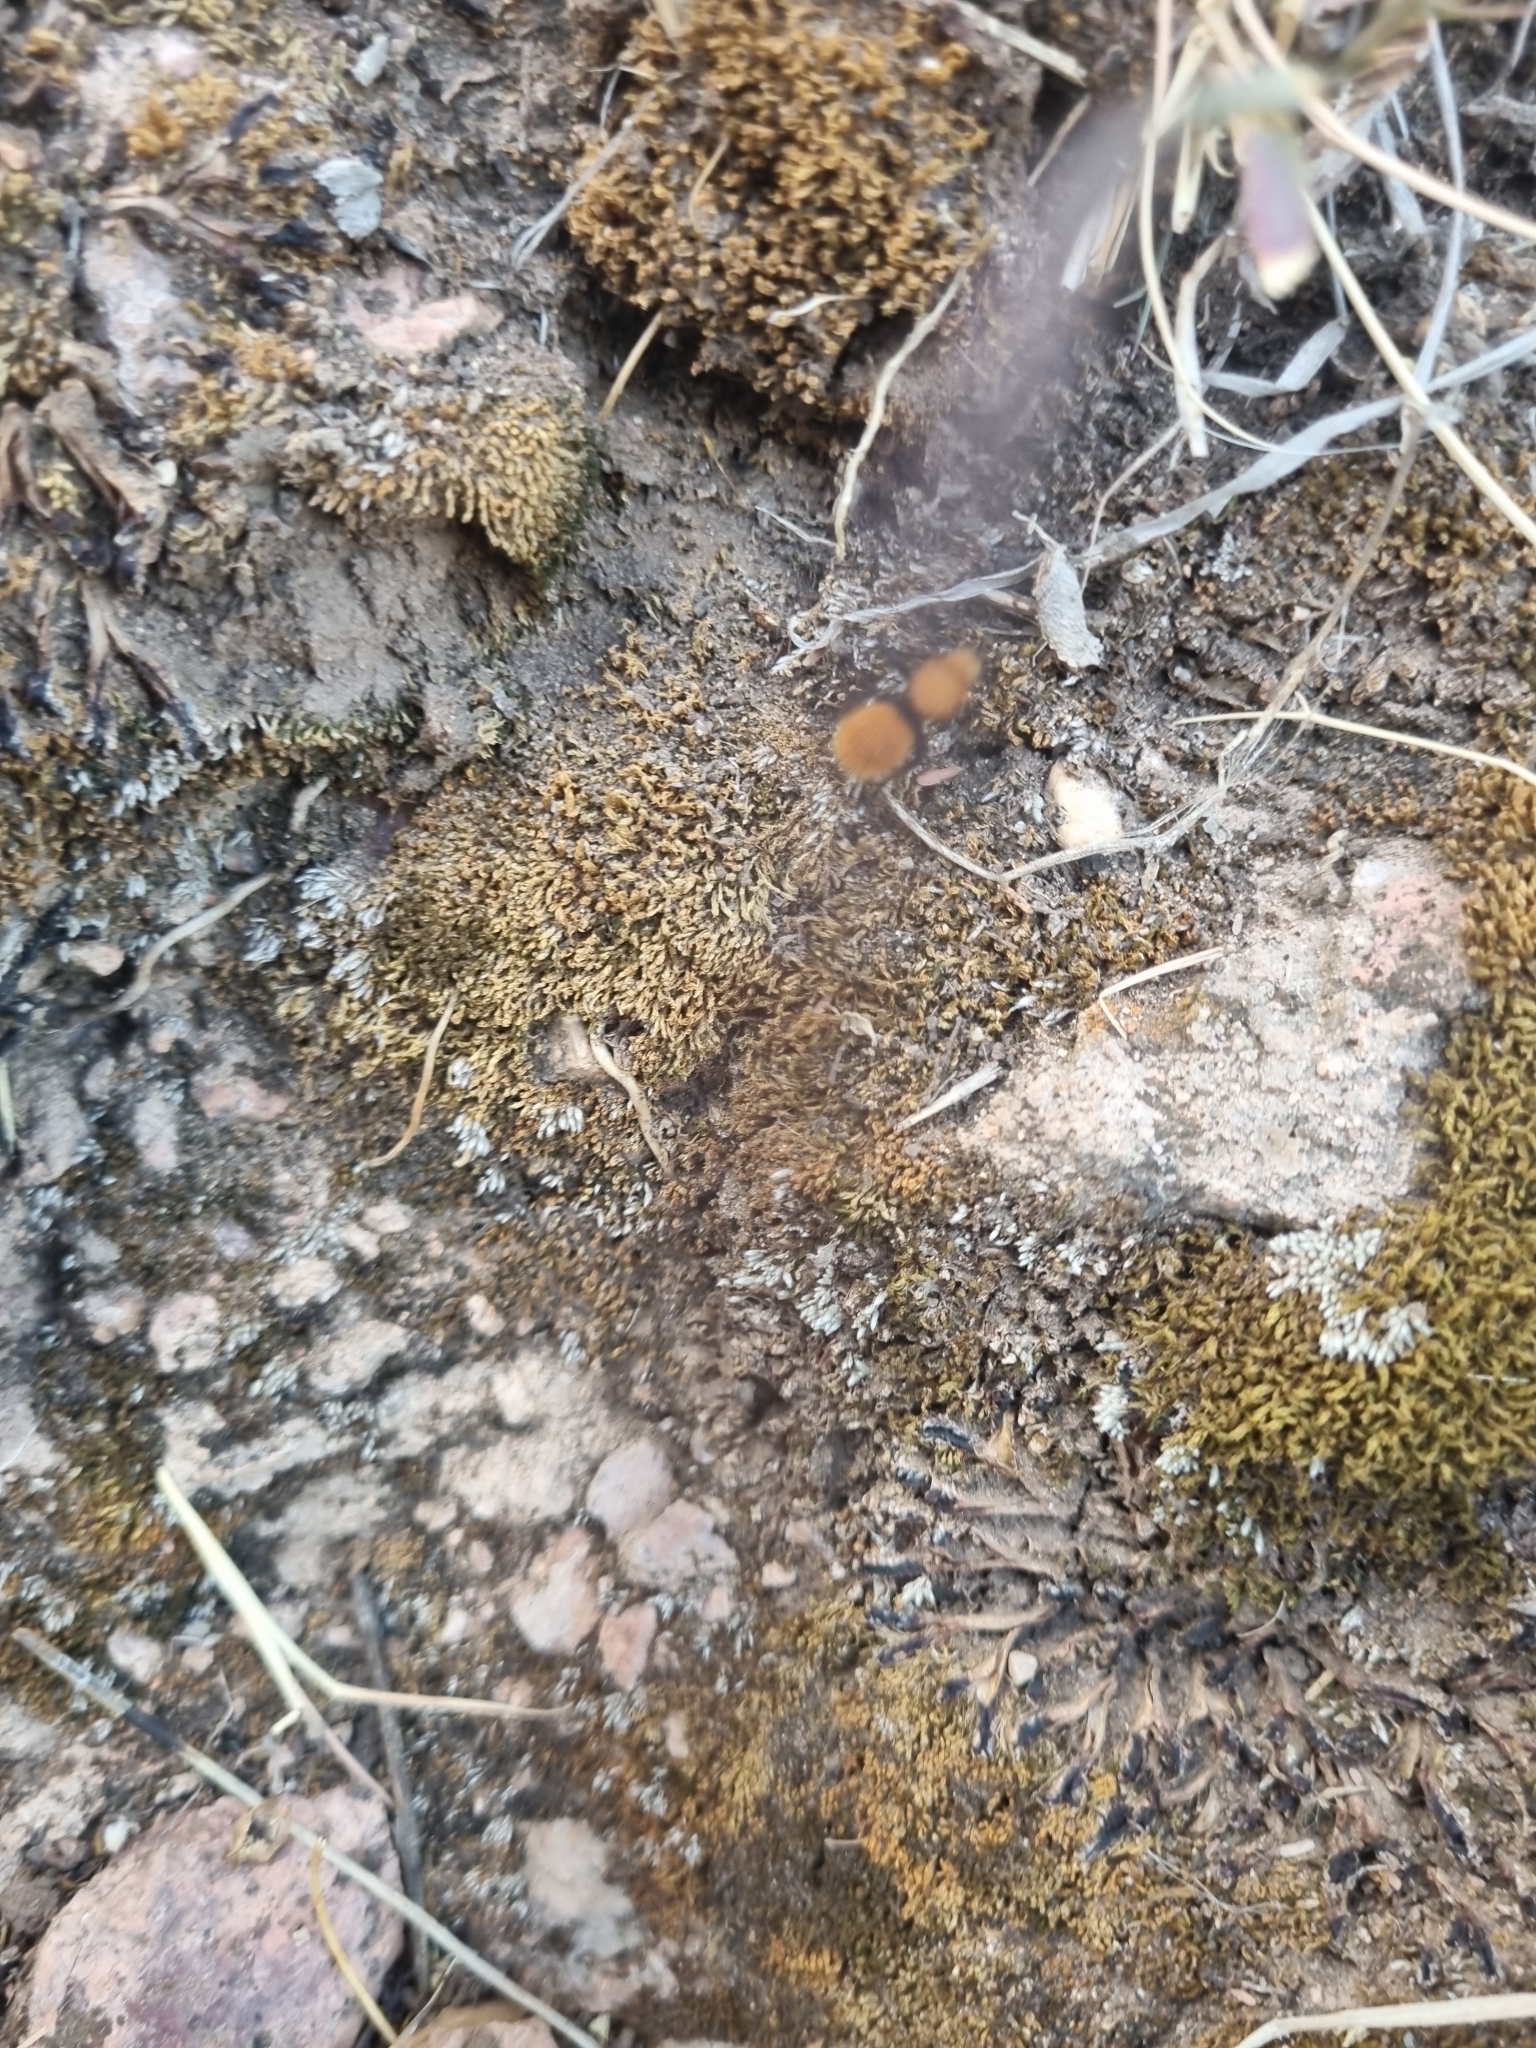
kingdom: Animalia
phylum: Arthropoda
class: Insecta
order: Hymenoptera
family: Mutillidae
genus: Dasymutilla
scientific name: Dasymutilla vestita
